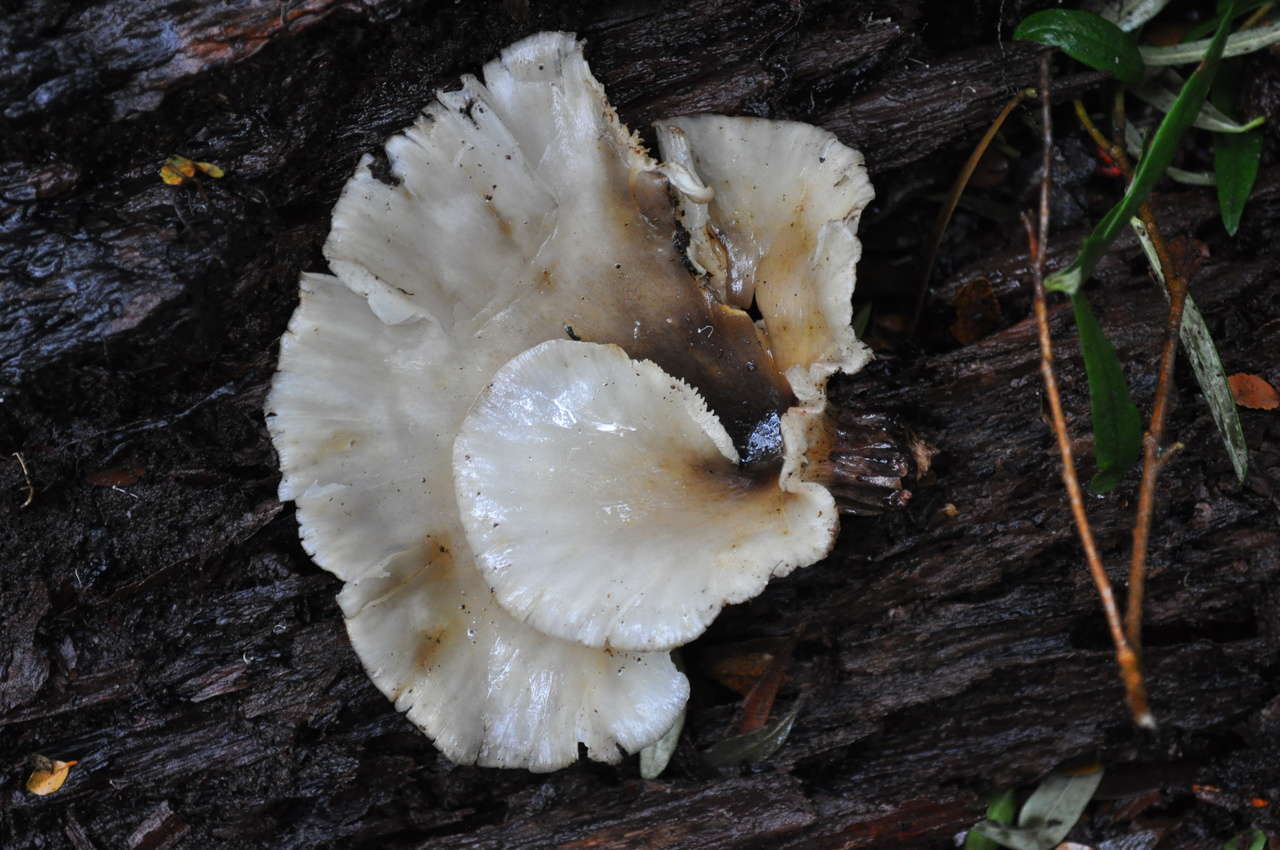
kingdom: Fungi
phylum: Basidiomycota
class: Agaricomycetes
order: Agaricales
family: Omphalotaceae
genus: Omphalotus
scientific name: Omphalotus nidiformis
